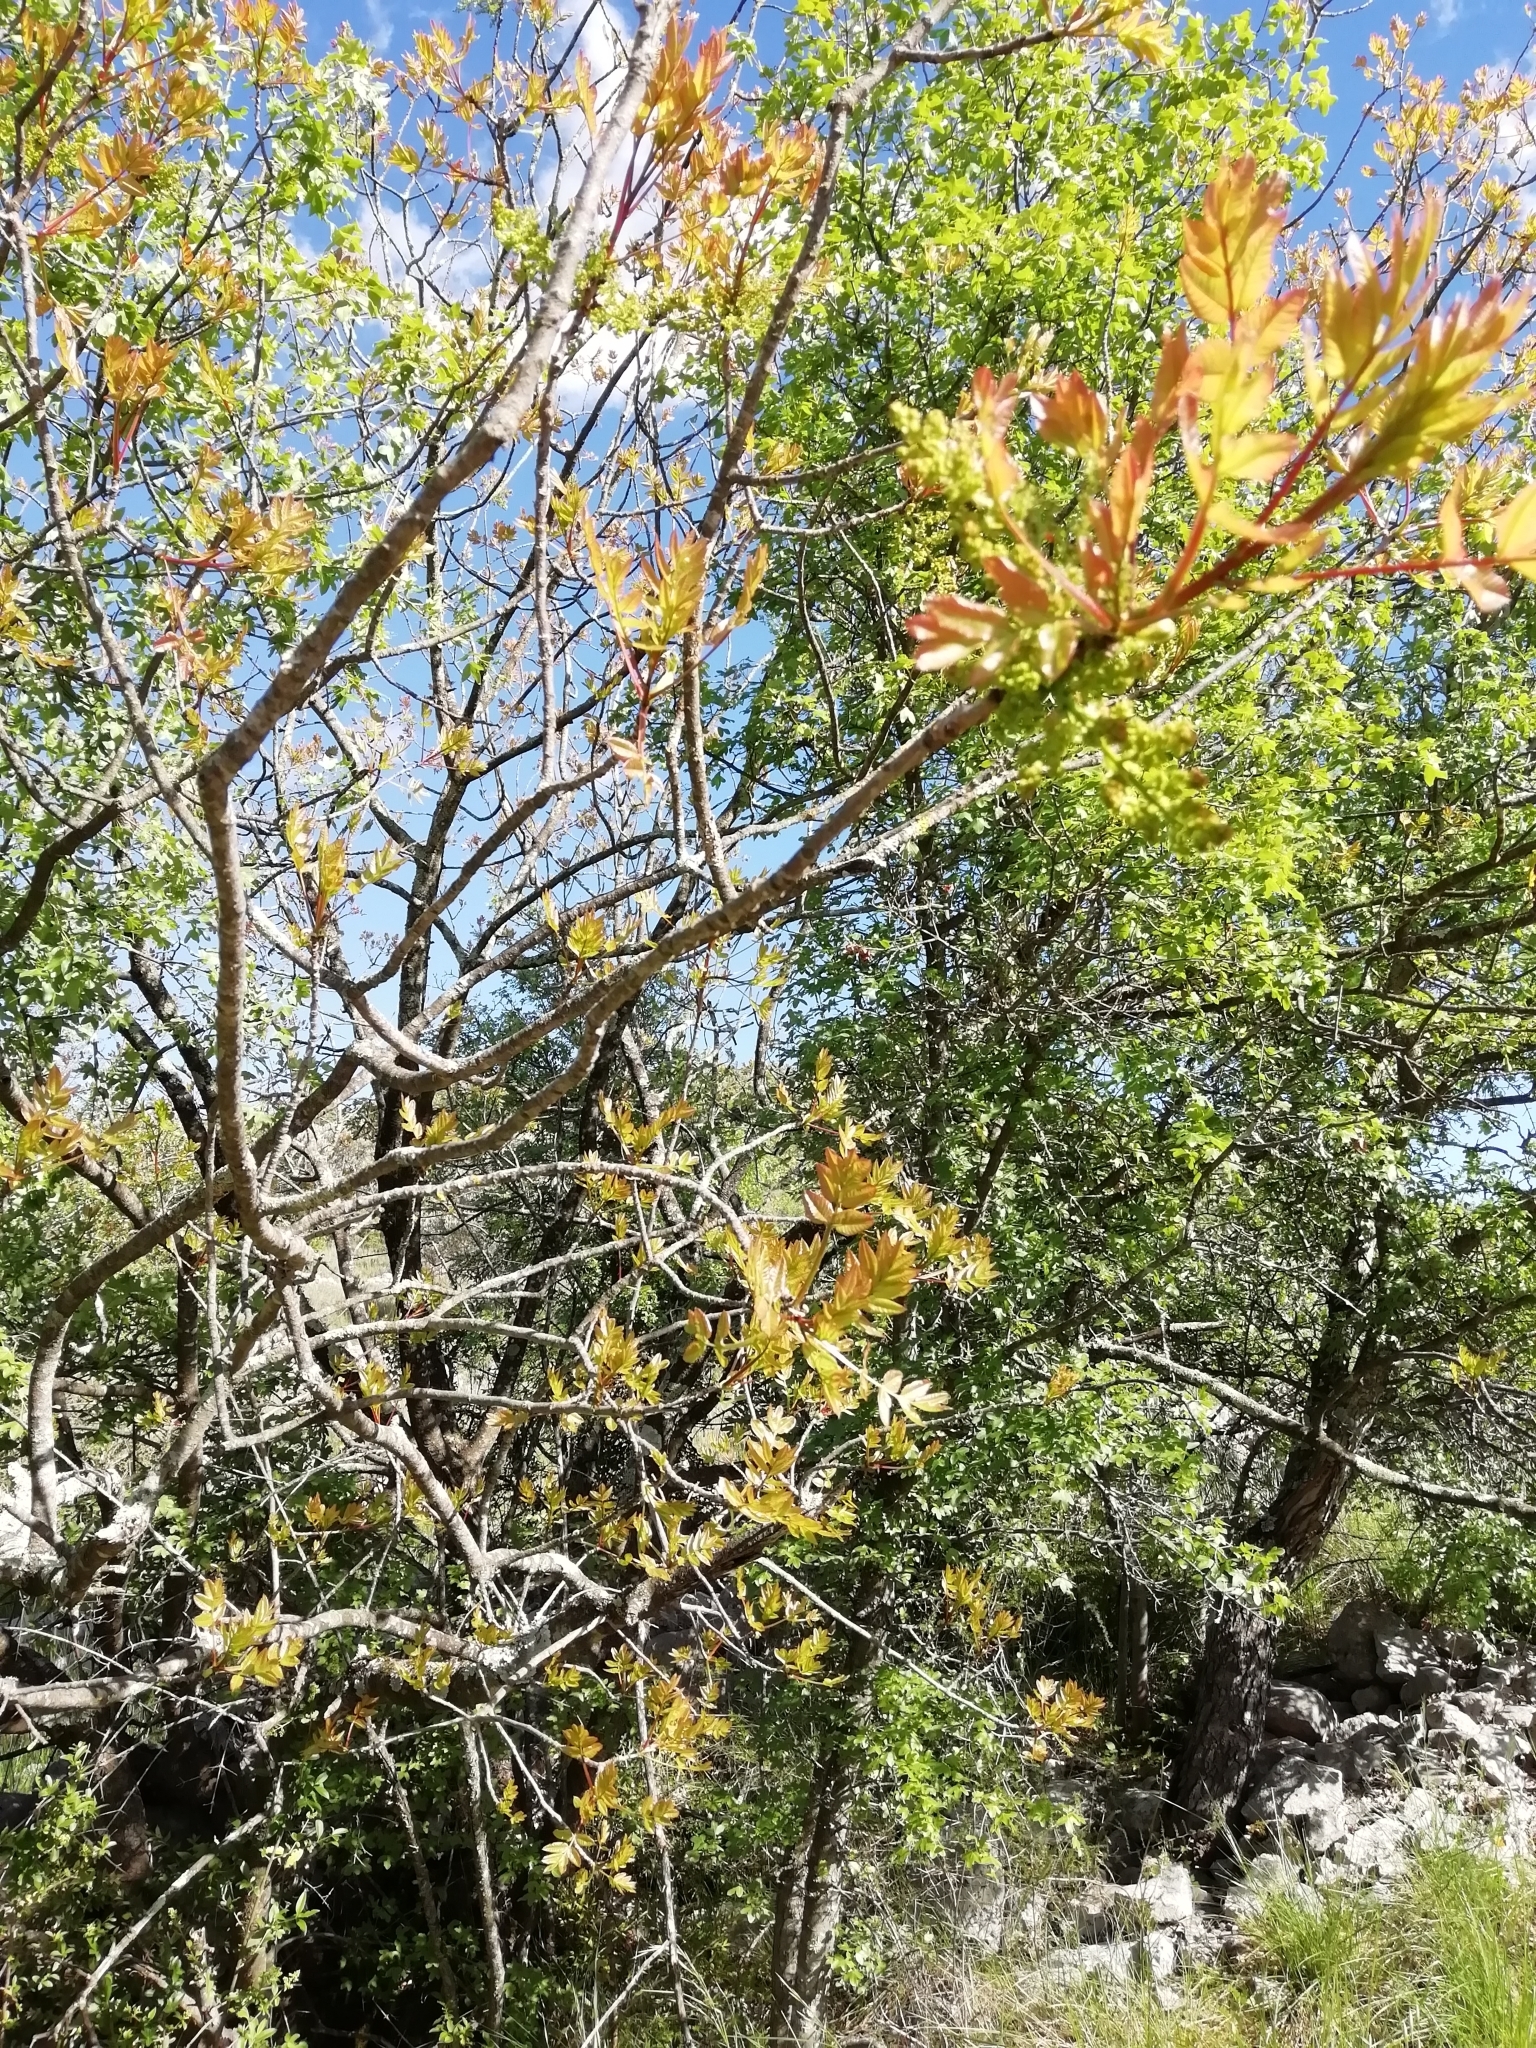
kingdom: Plantae
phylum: Tracheophyta
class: Magnoliopsida
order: Sapindales
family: Anacardiaceae
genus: Pistacia
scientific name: Pistacia terebinthus
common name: Terebinth
